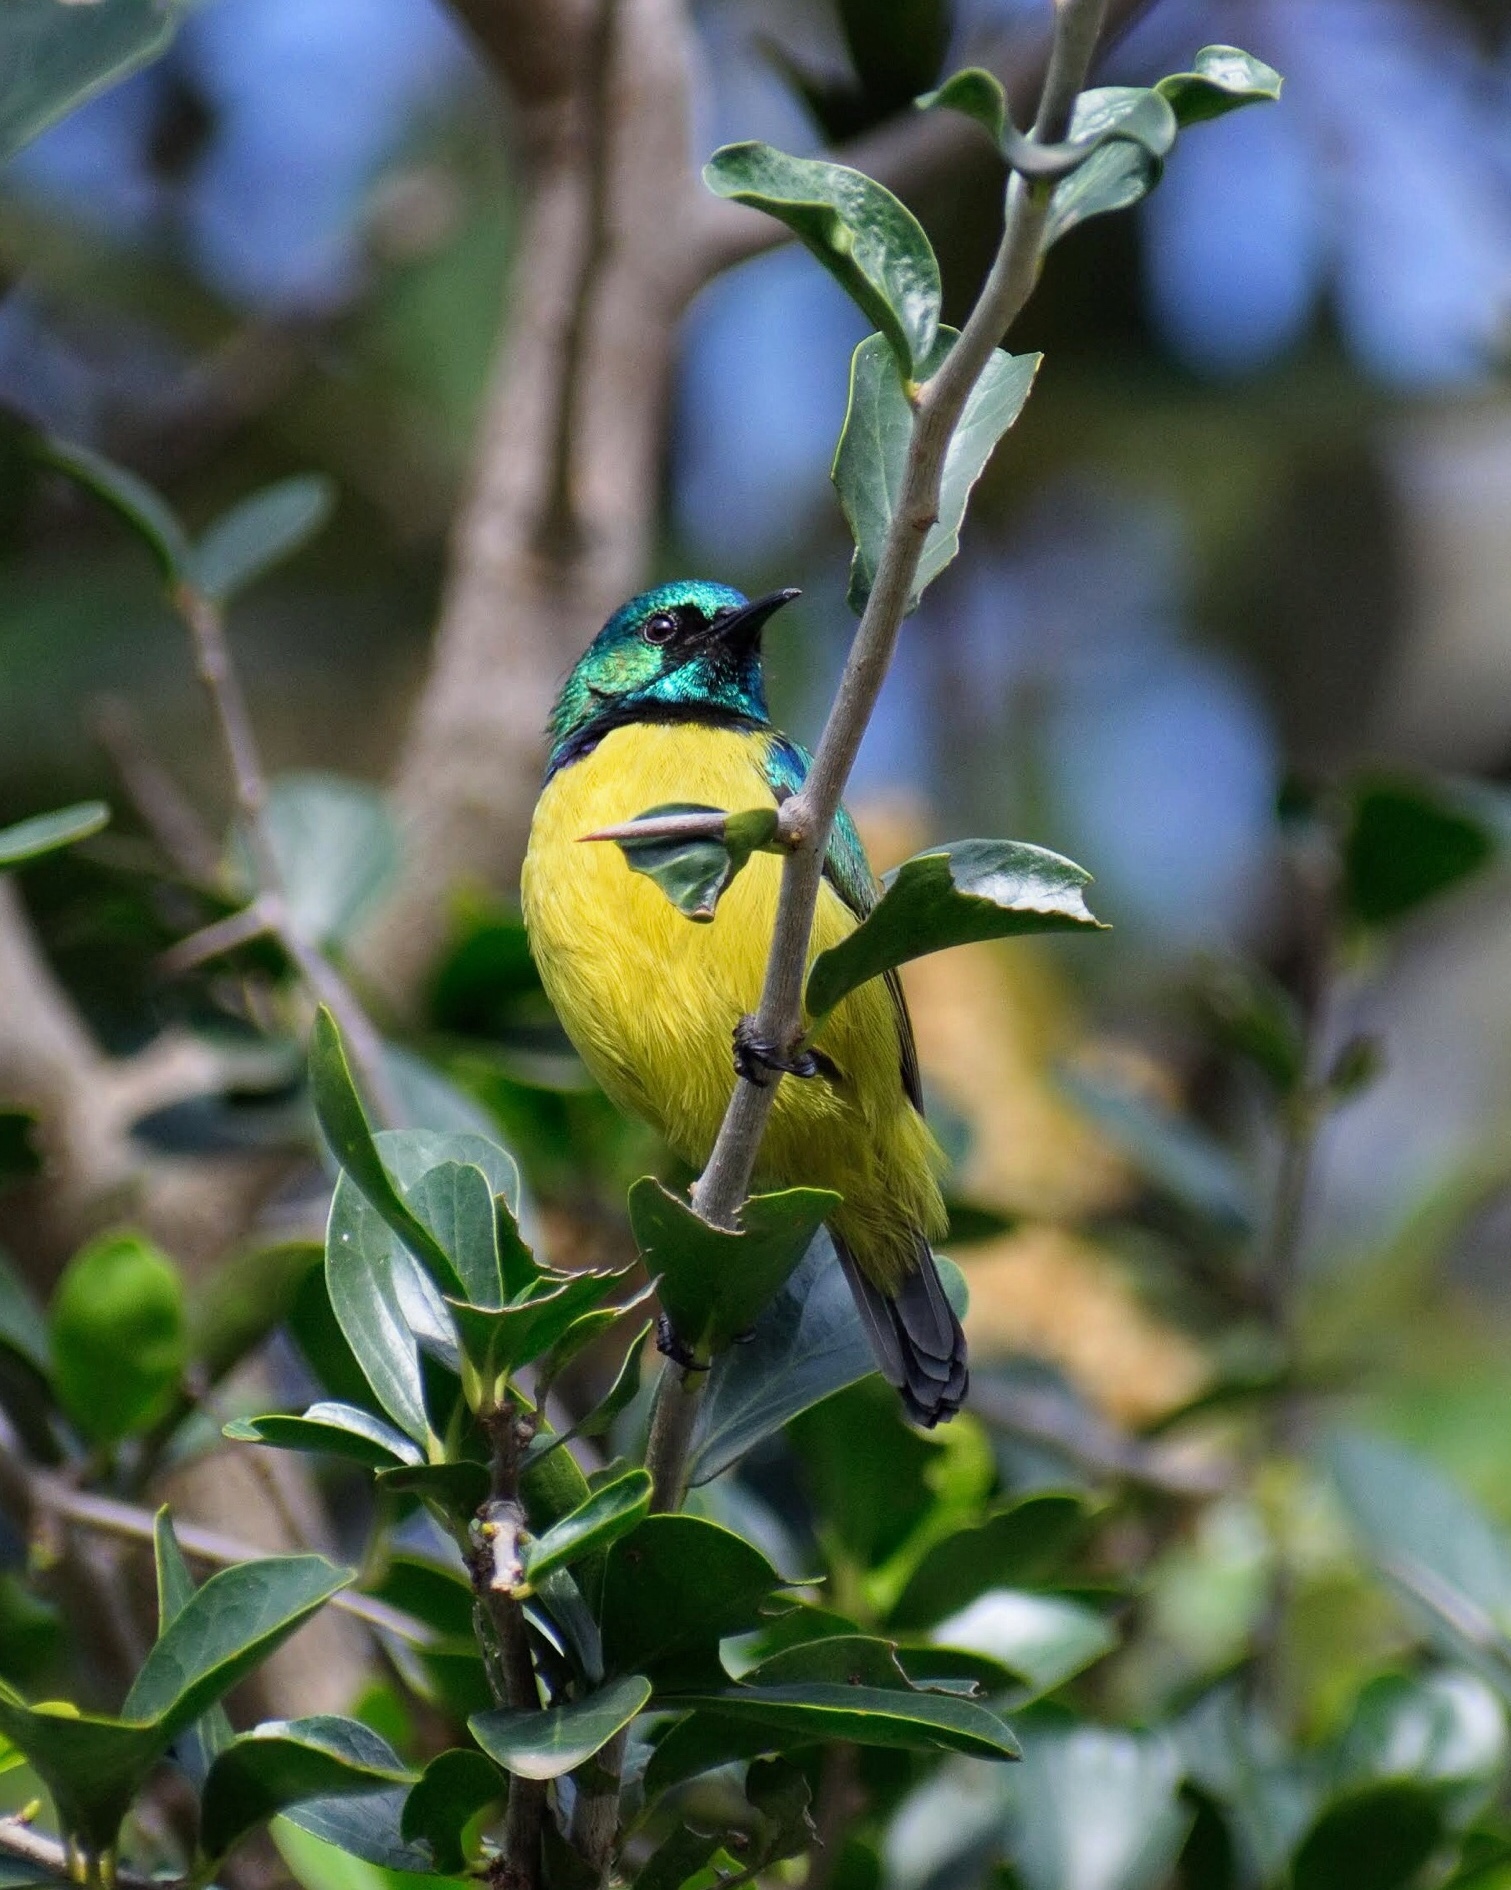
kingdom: Animalia
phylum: Chordata
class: Aves
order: Passeriformes
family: Nectariniidae
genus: Hedydipna
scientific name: Hedydipna collaris
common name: Collared sunbird
